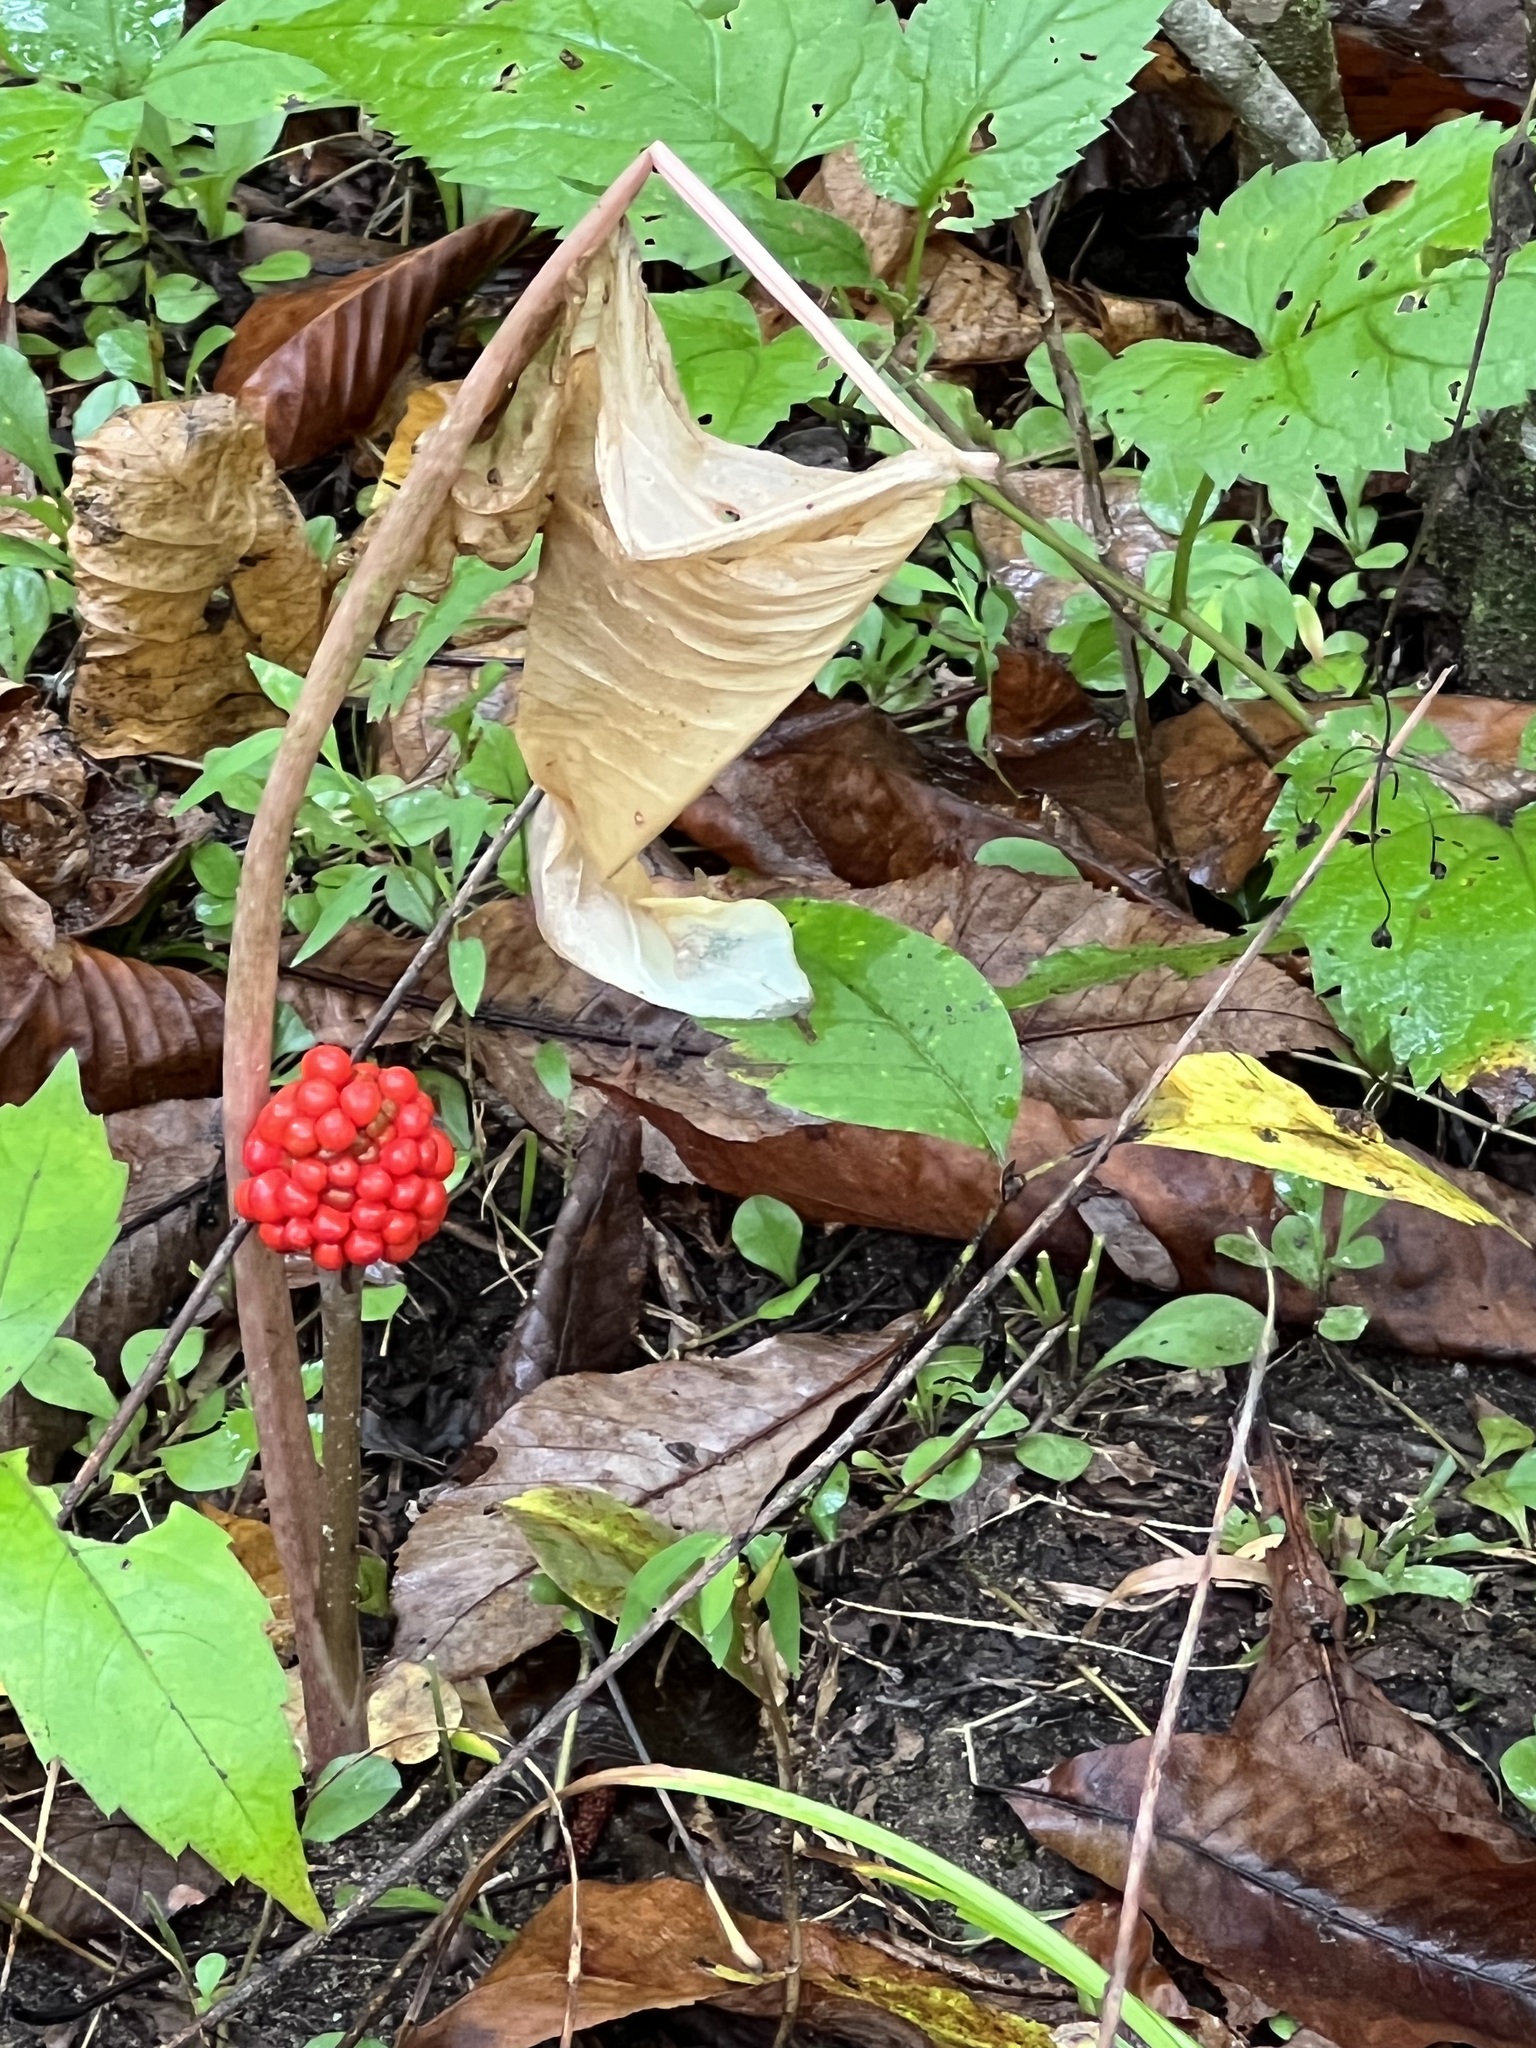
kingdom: Plantae
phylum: Tracheophyta
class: Liliopsida
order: Alismatales
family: Araceae
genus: Arisaema
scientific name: Arisaema triphyllum
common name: Jack-in-the-pulpit
